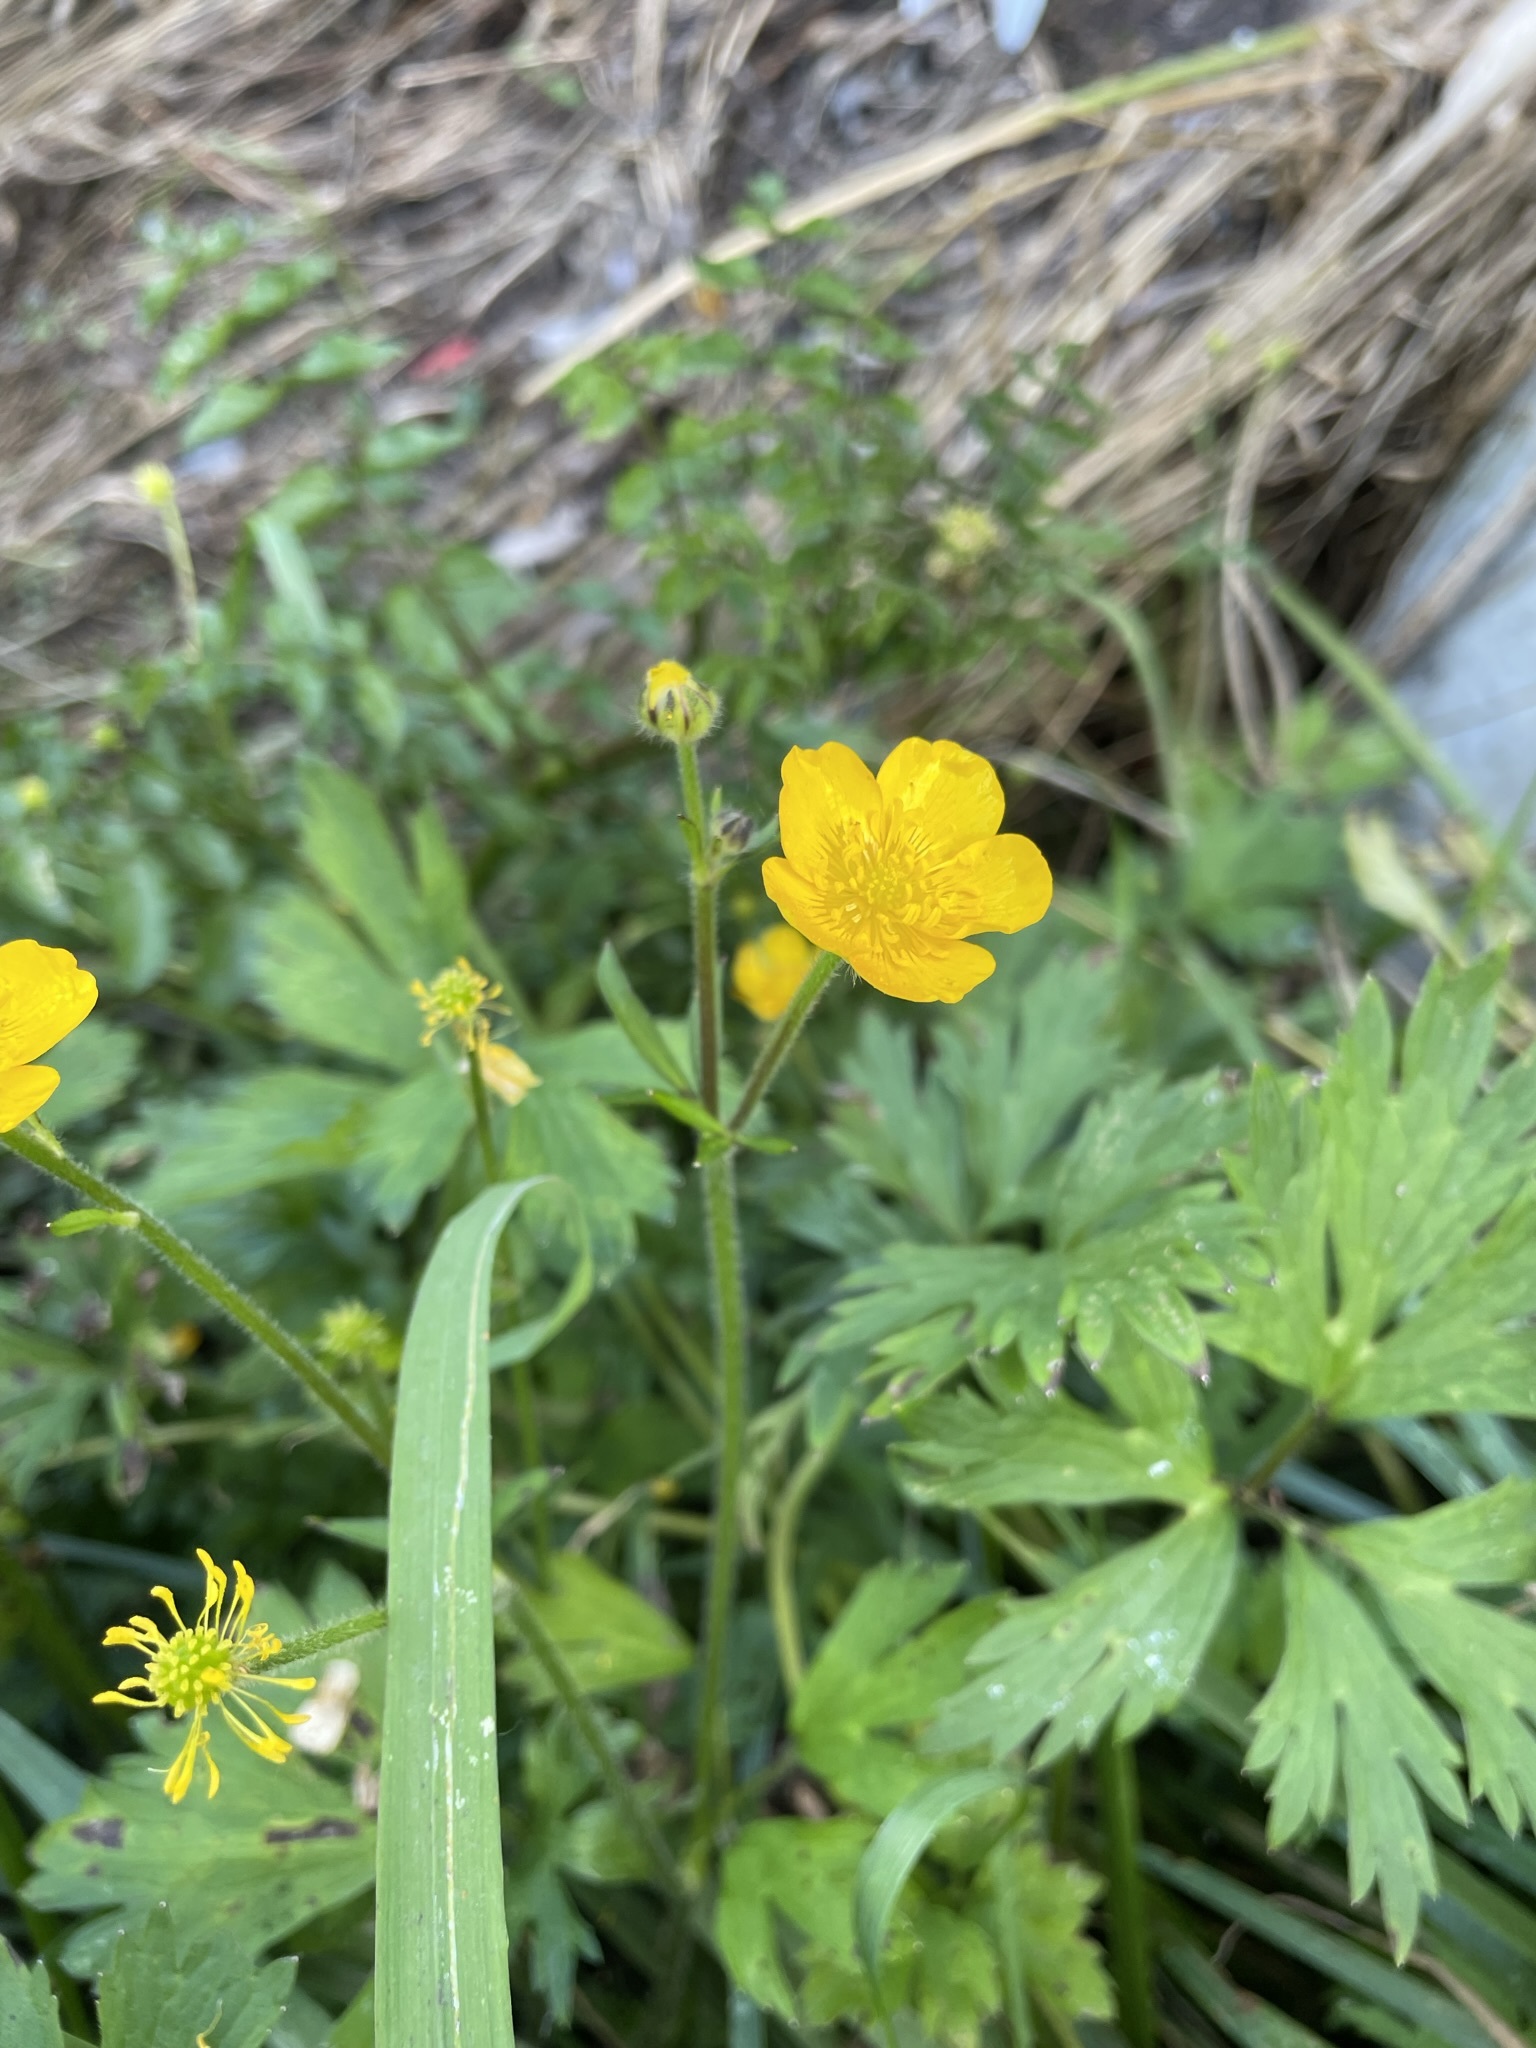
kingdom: Plantae
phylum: Tracheophyta
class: Magnoliopsida
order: Ranunculales
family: Ranunculaceae
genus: Ranunculus
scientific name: Ranunculus repens
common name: Creeping buttercup
